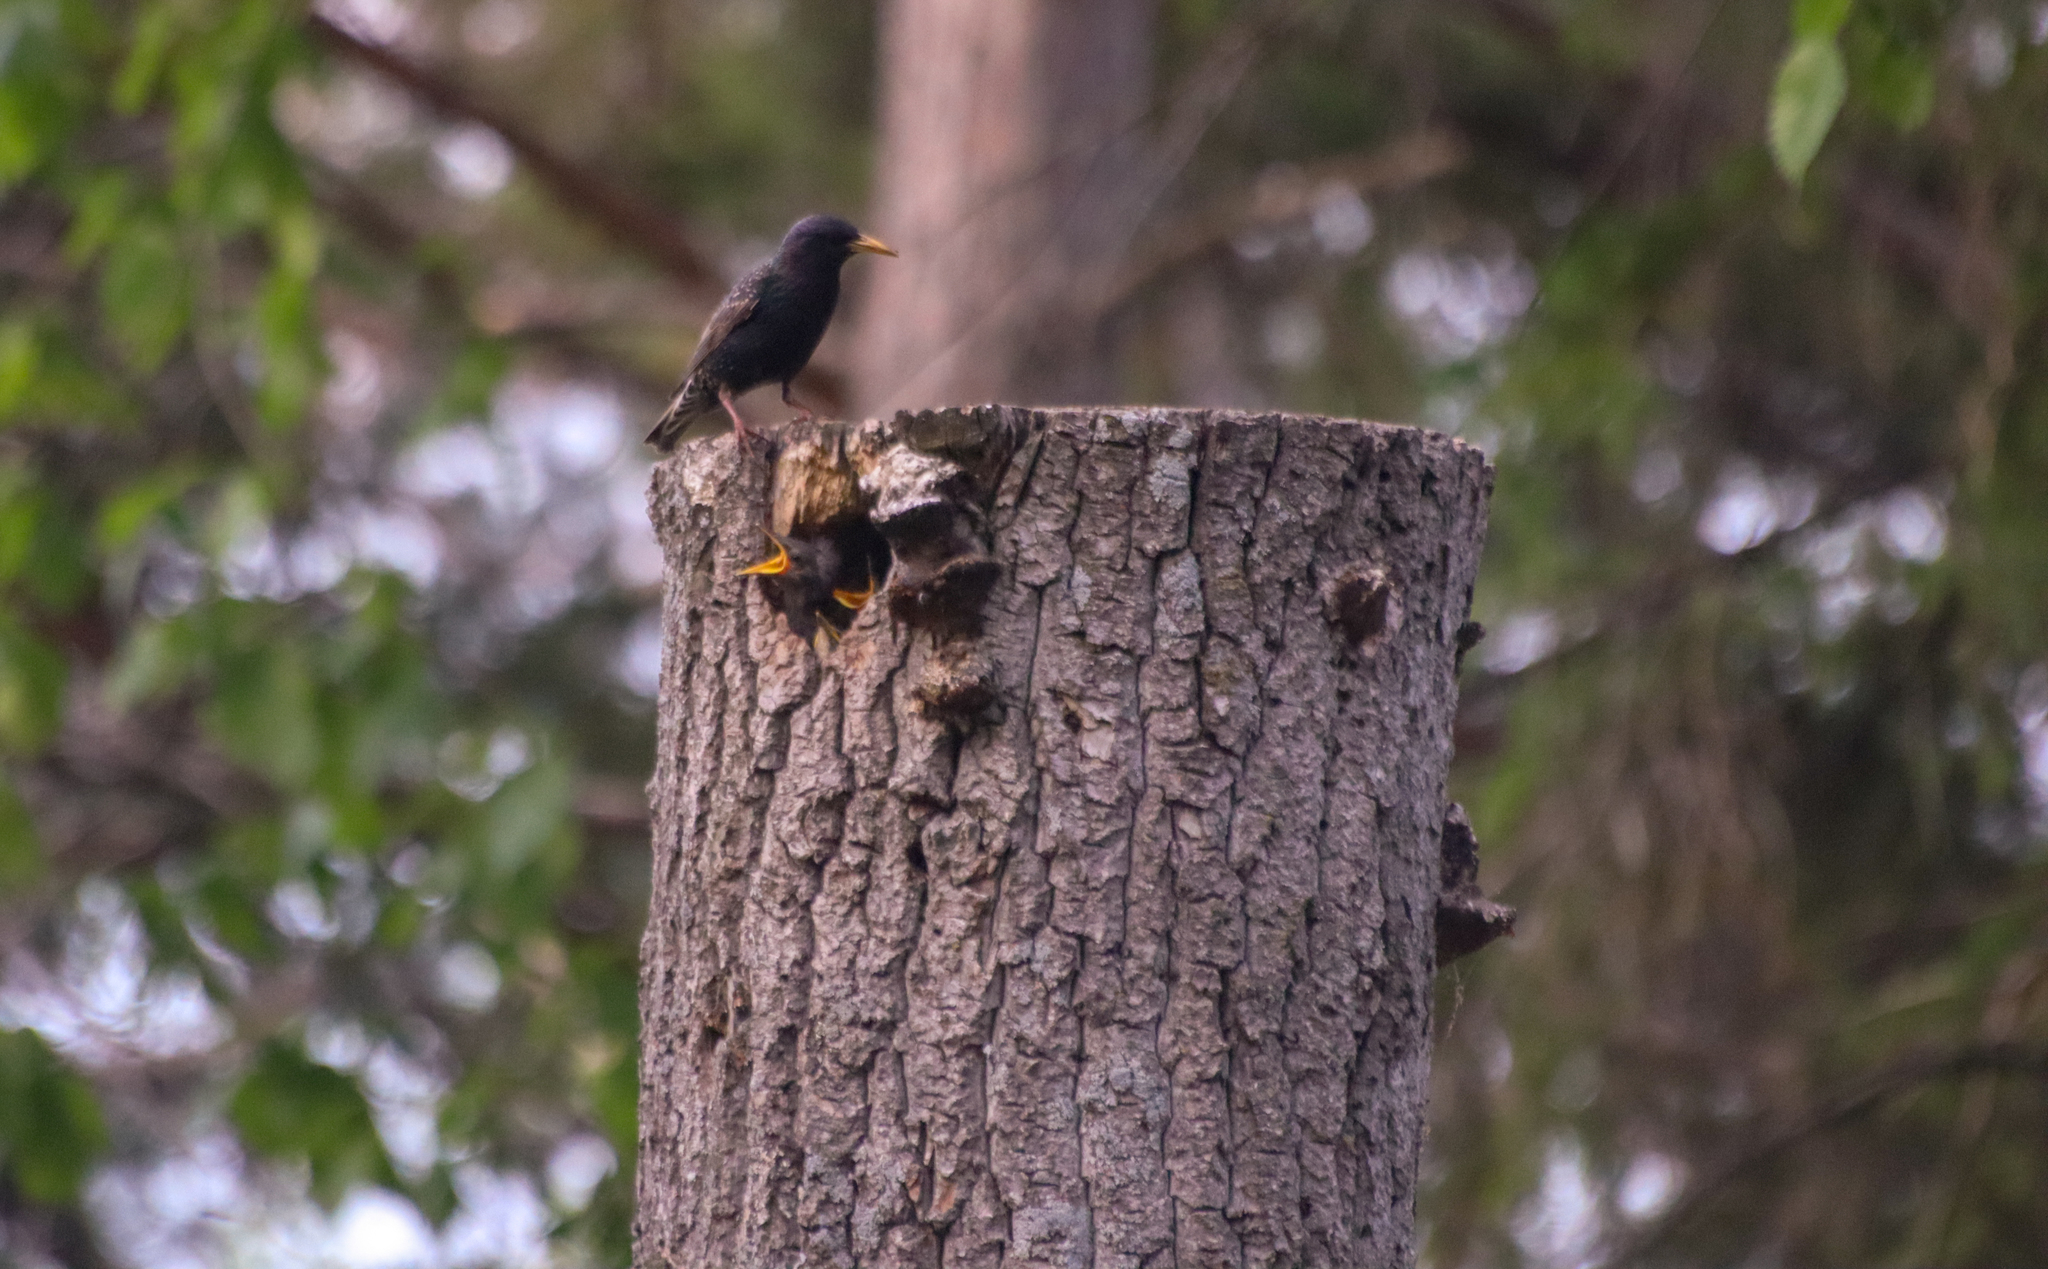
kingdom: Animalia
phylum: Chordata
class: Aves
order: Passeriformes
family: Sturnidae
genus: Sturnus
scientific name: Sturnus vulgaris
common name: Common starling
